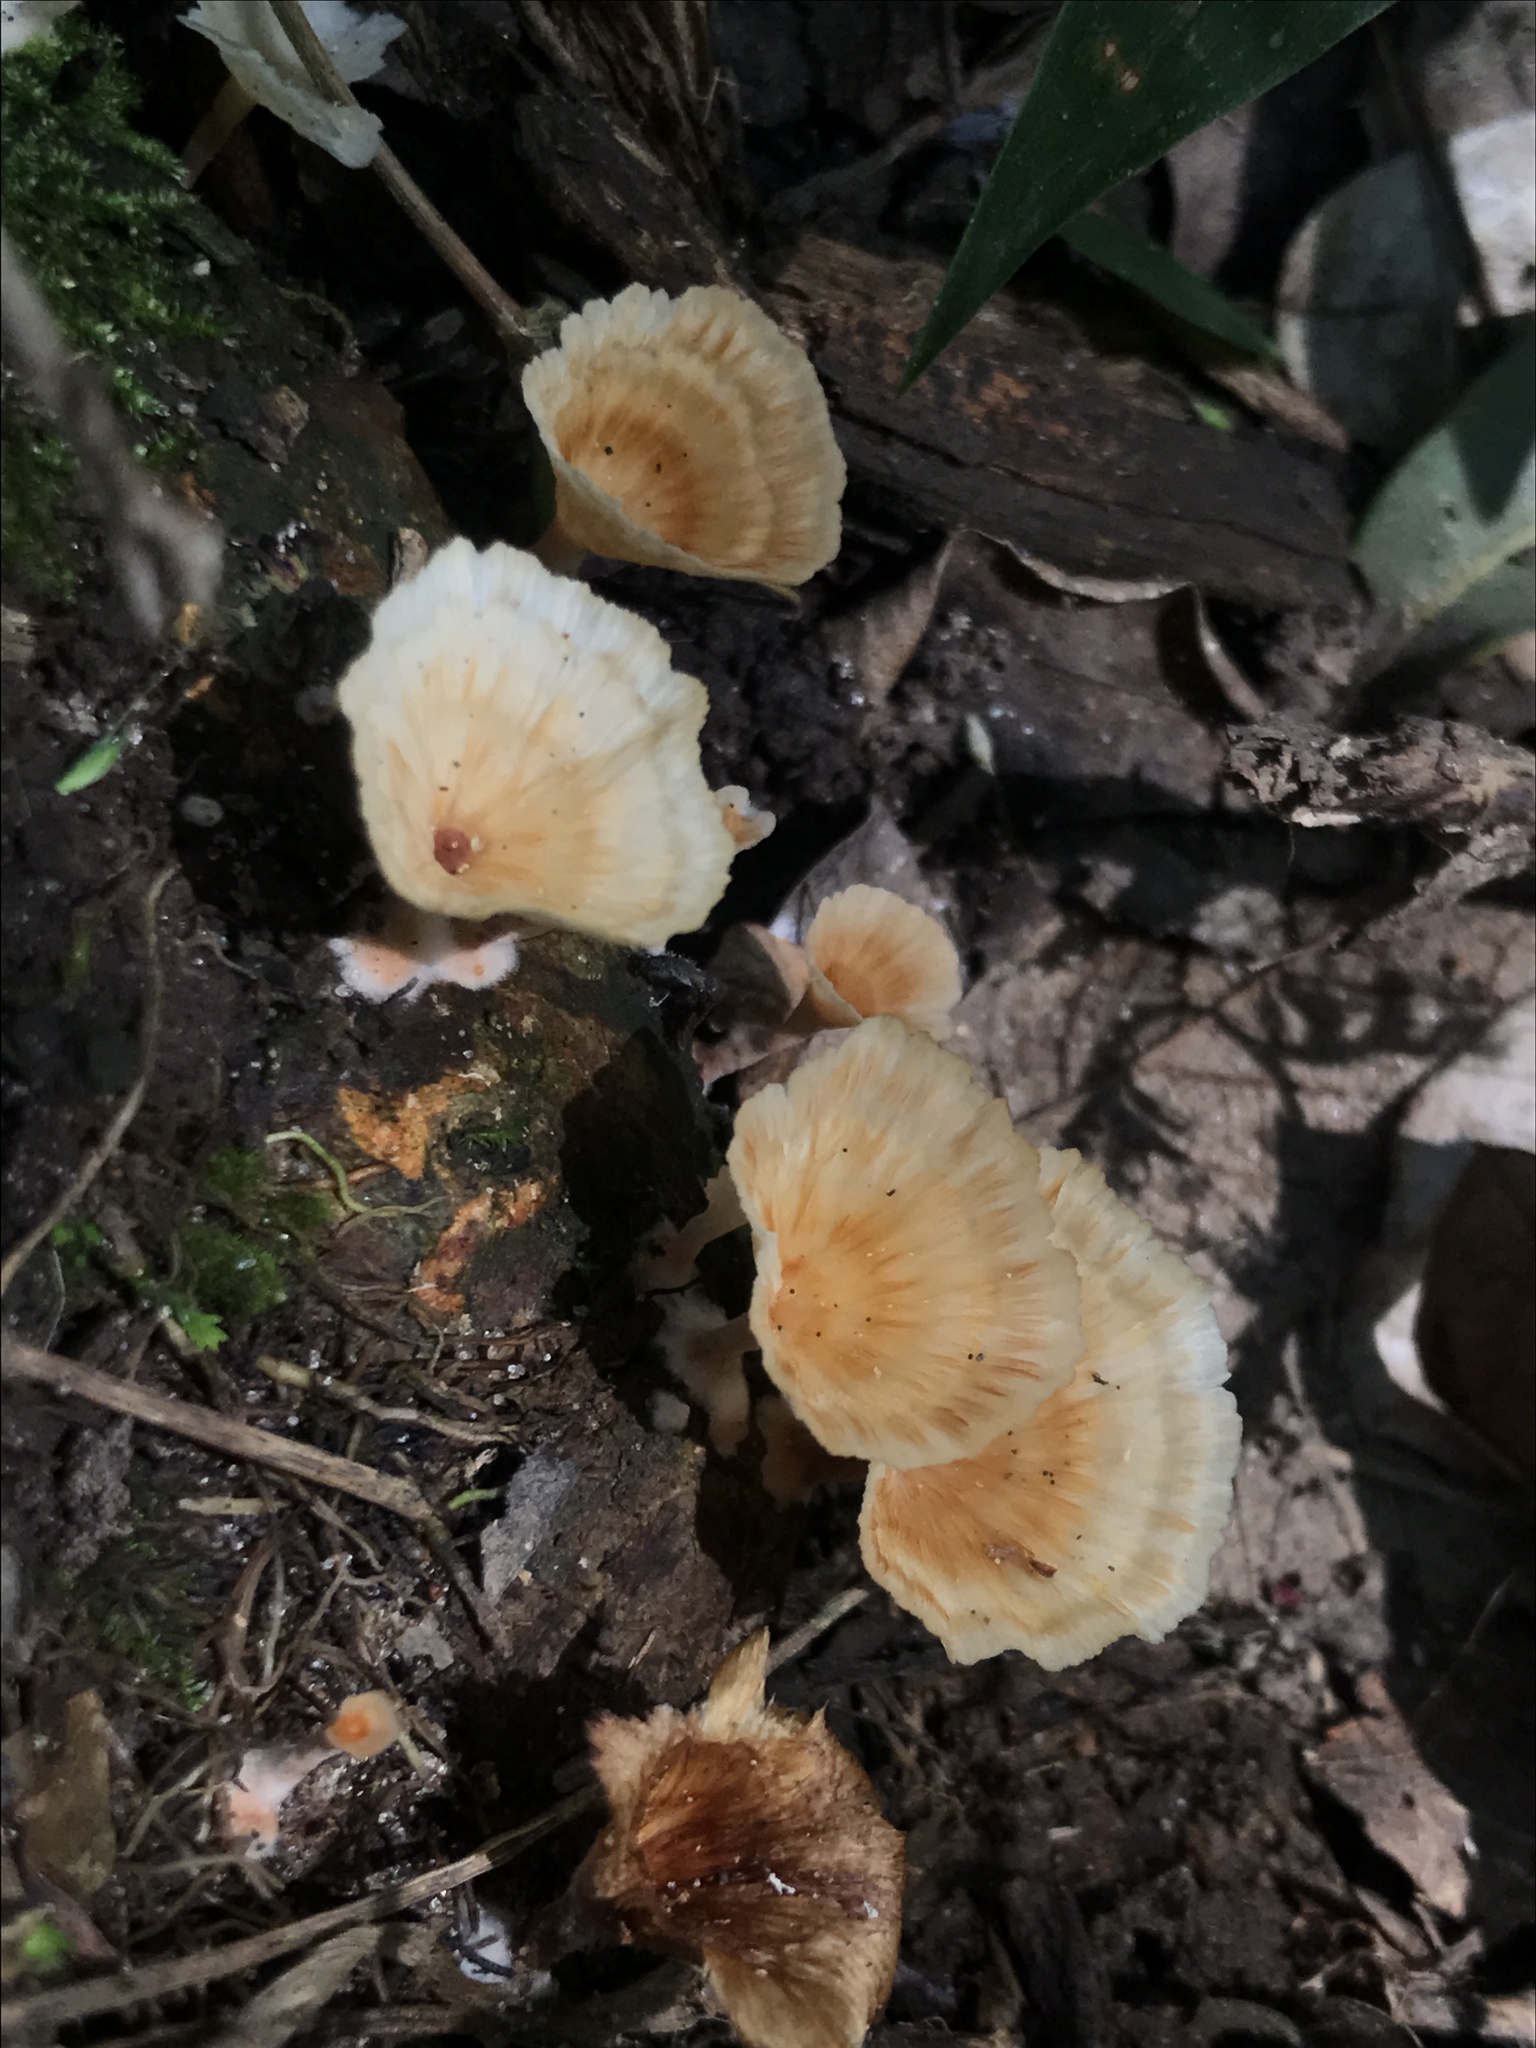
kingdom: Fungi
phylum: Basidiomycota
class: Agaricomycetes
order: Polyporales
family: Podoscyphaceae
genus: Podoscypha
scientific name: Podoscypha petalodes
